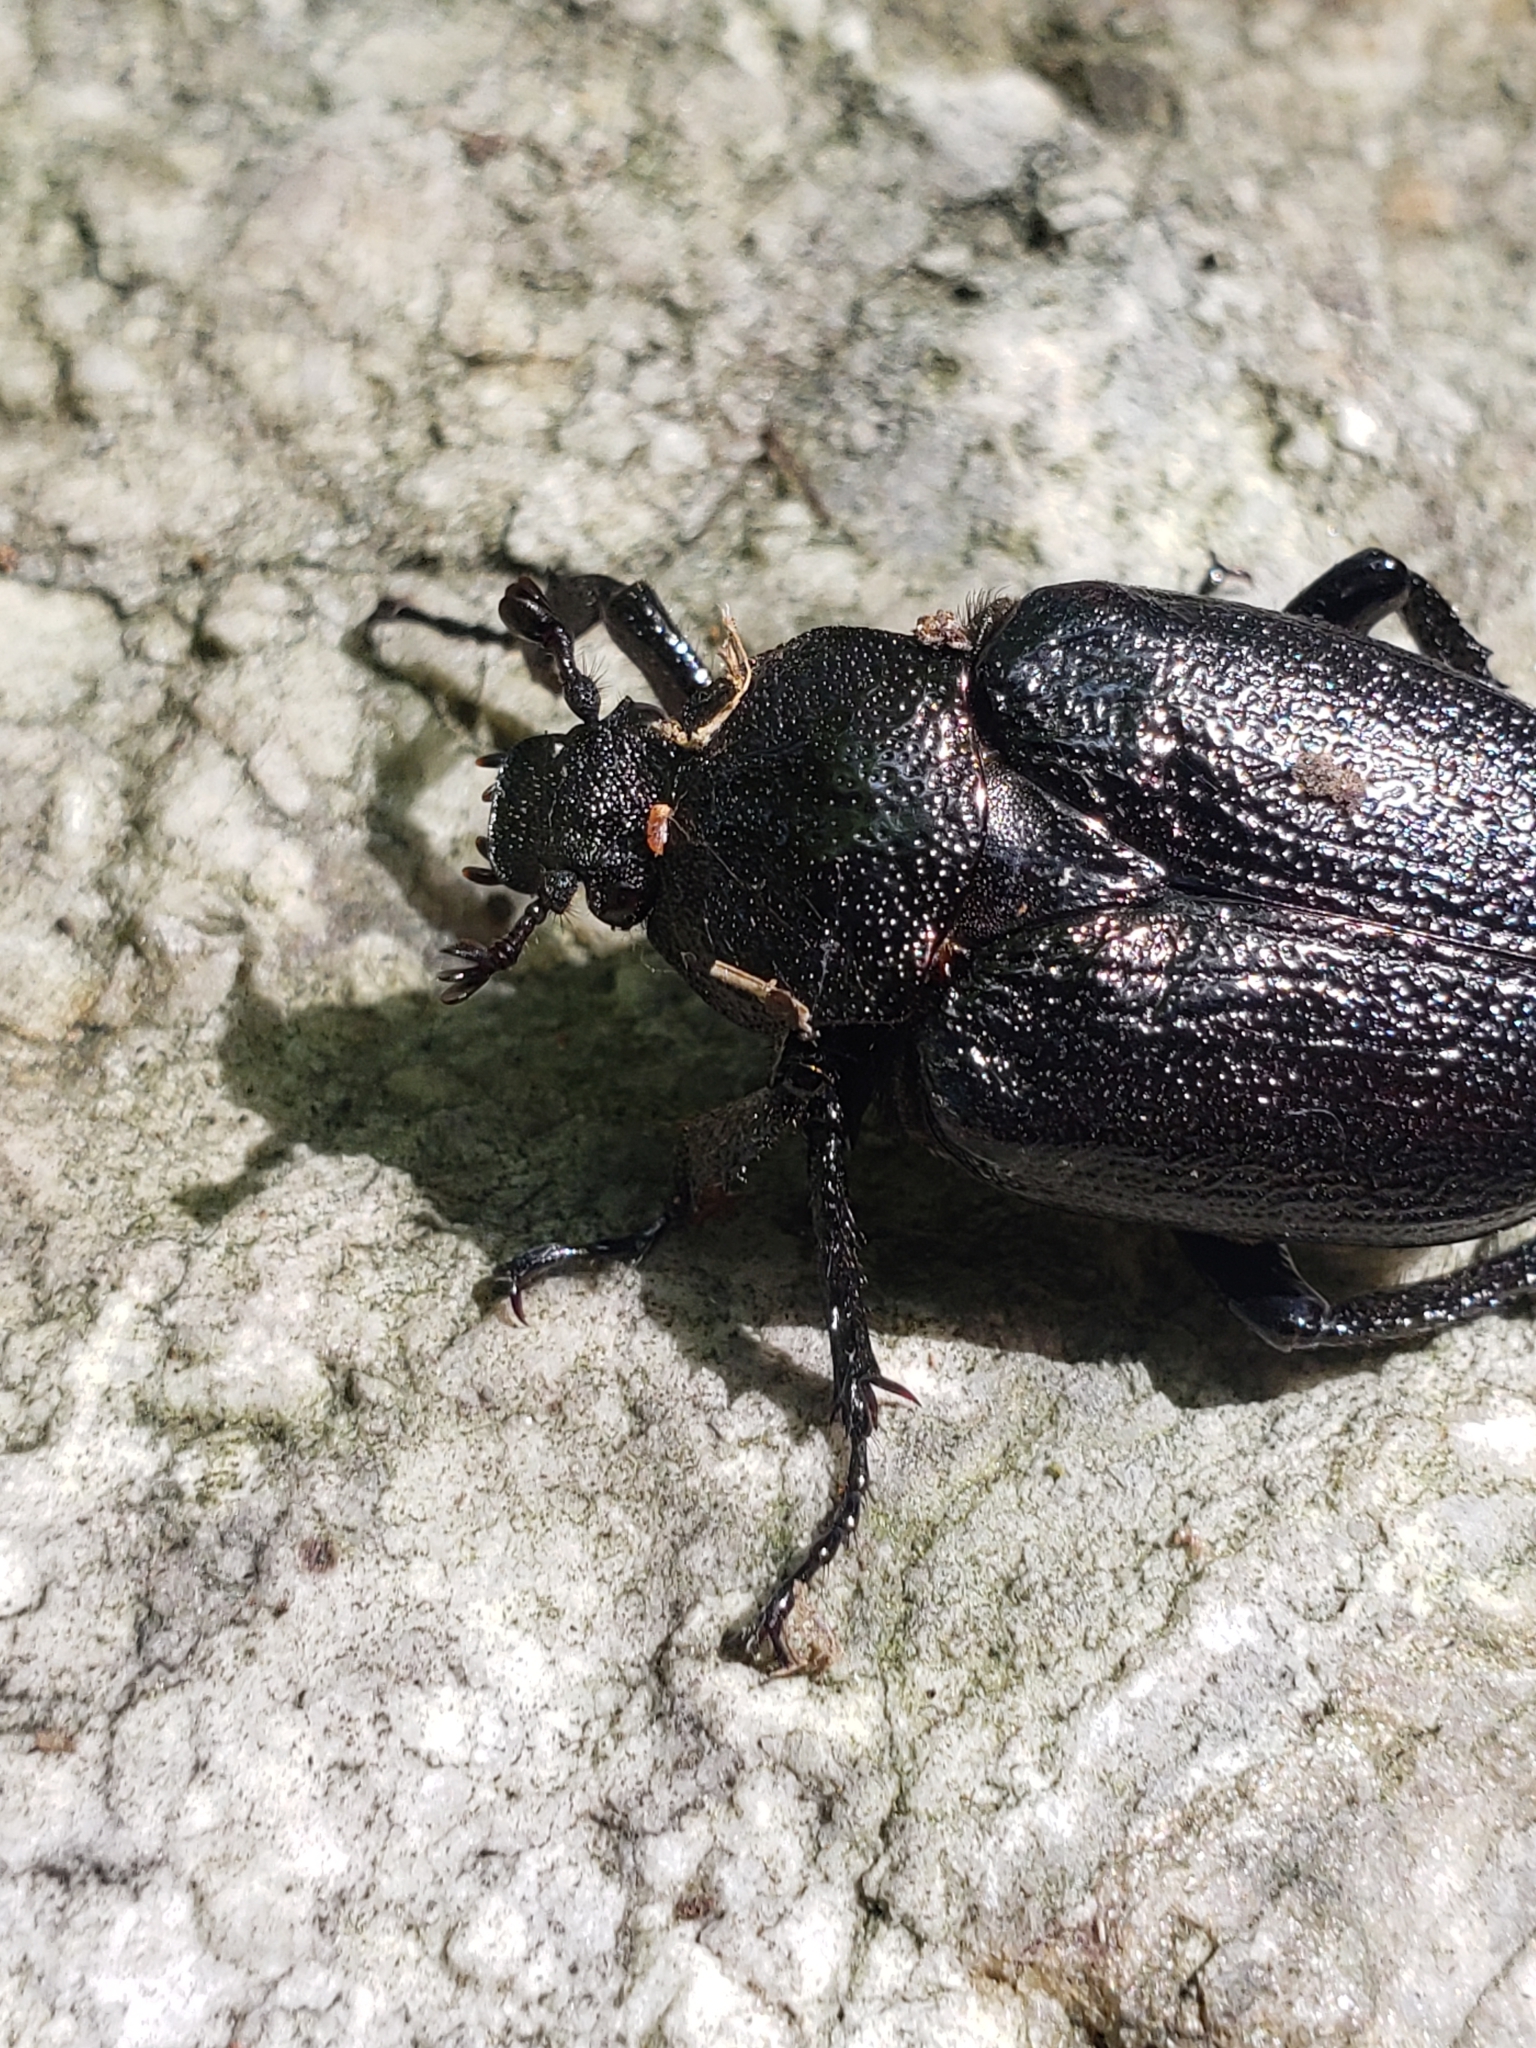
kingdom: Animalia
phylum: Arthropoda
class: Insecta
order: Coleoptera
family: Scarabaeidae
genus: Osmoderma
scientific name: Osmoderma scabra
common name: Rough hermit beetle
